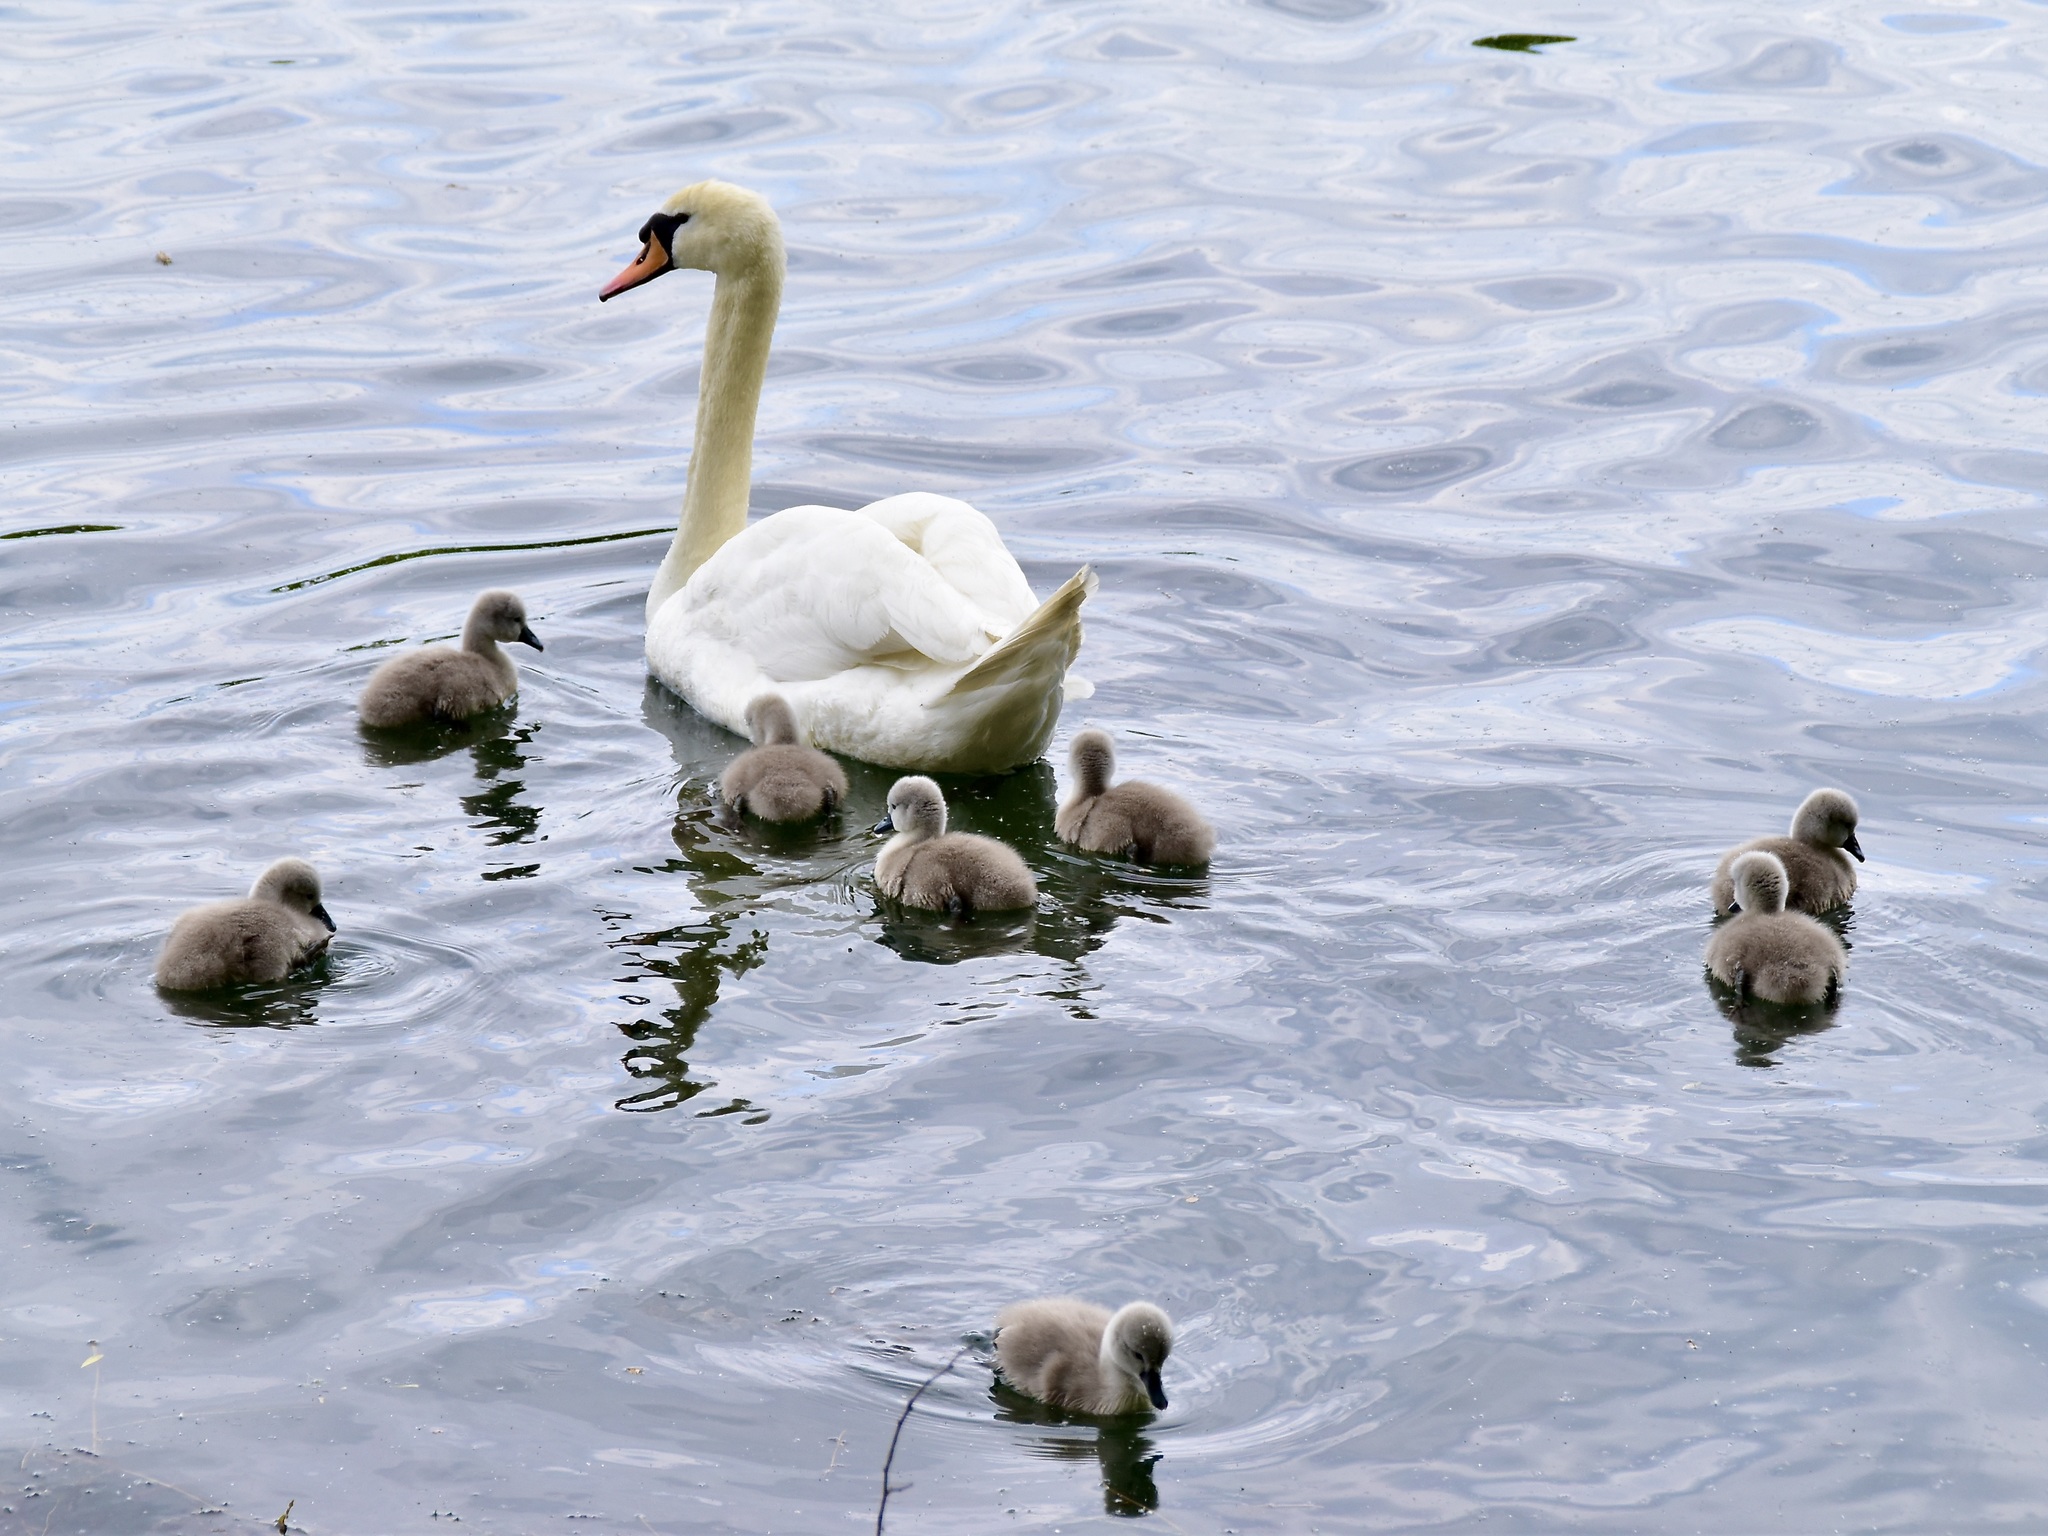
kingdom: Animalia
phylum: Chordata
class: Aves
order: Anseriformes
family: Anatidae
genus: Cygnus
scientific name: Cygnus olor
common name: Mute swan
